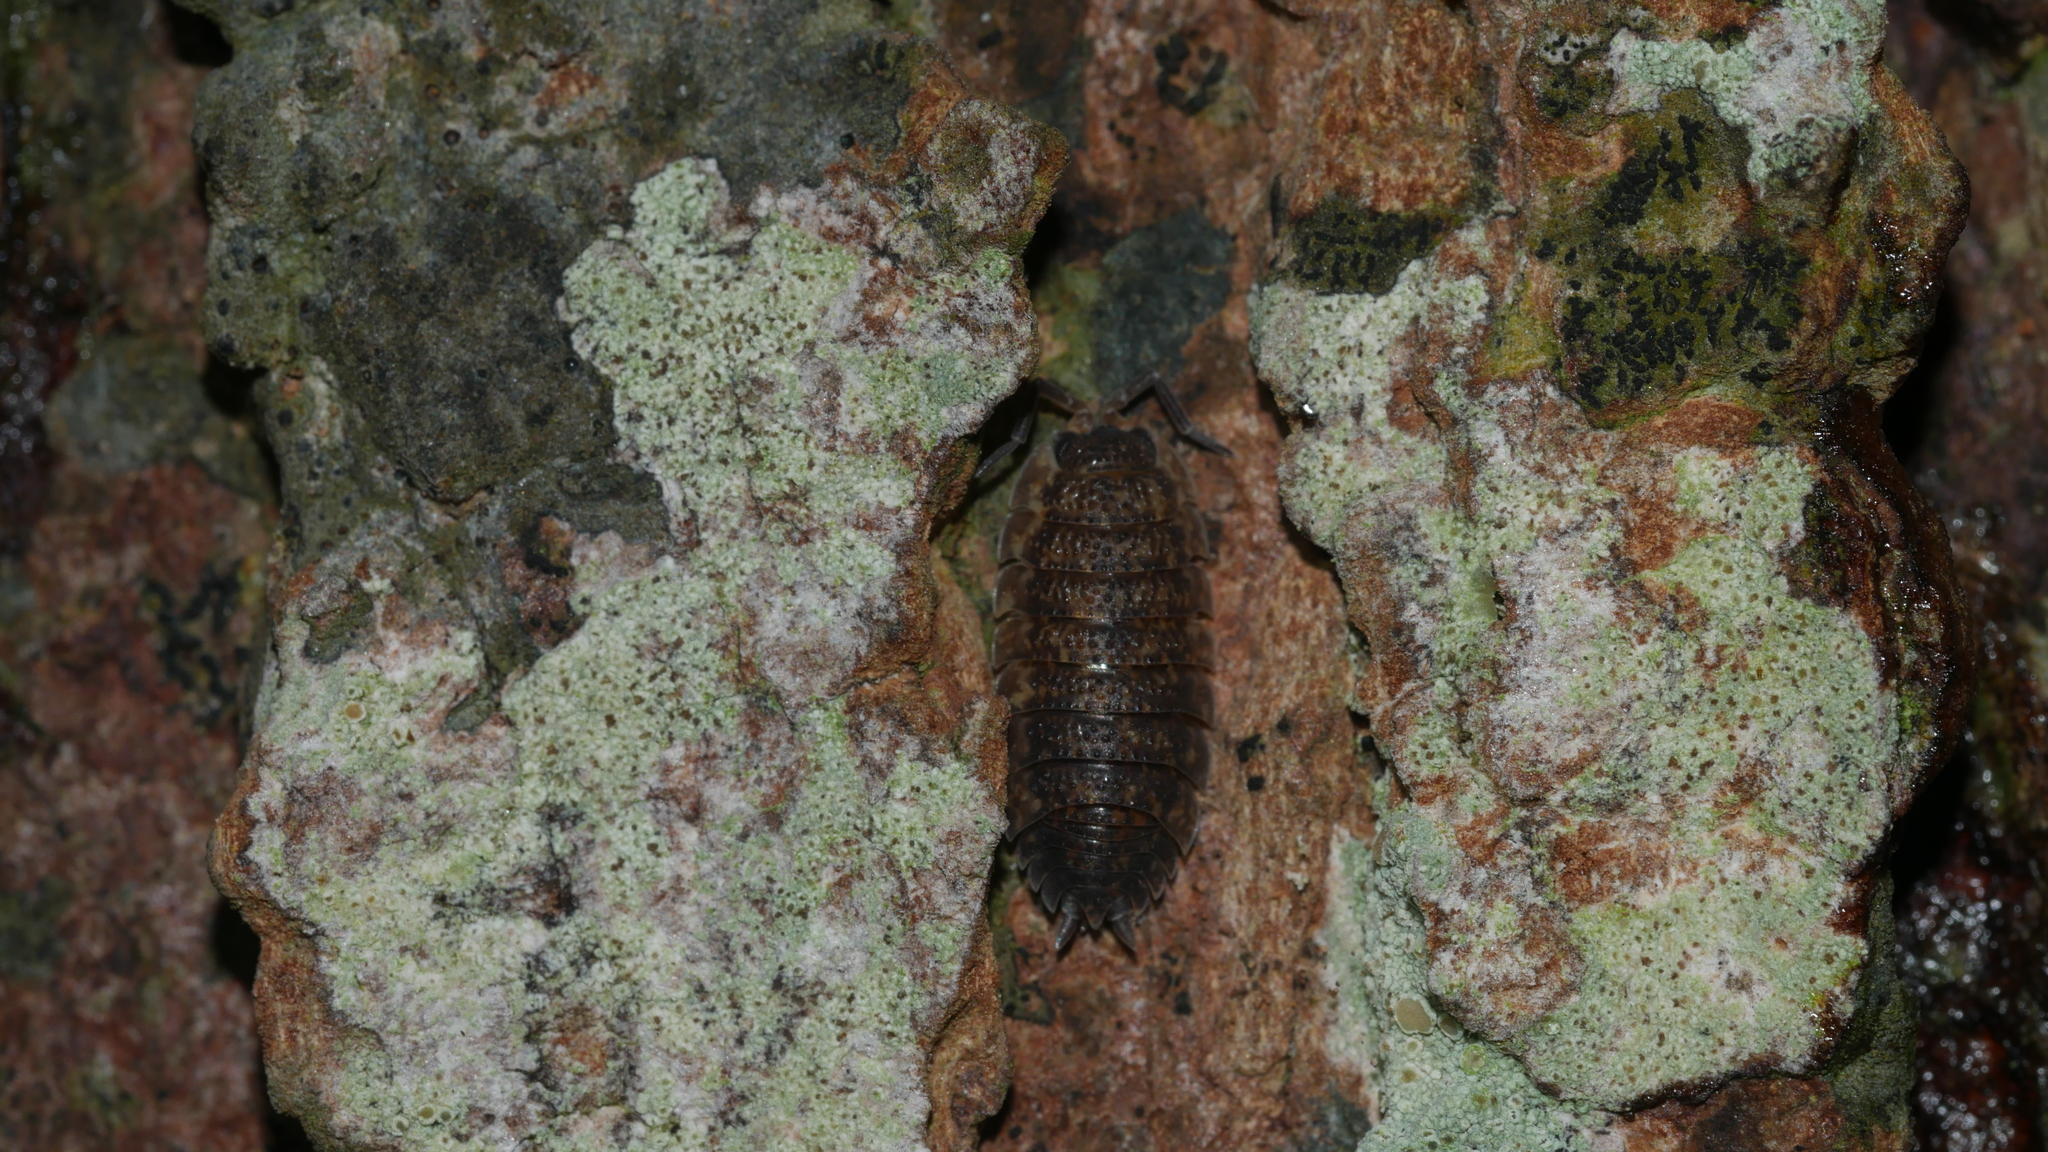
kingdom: Animalia
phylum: Arthropoda
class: Malacostraca
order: Isopoda
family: Porcellionidae
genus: Porcellio
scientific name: Porcellio scaber
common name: Common rough woodlouse
